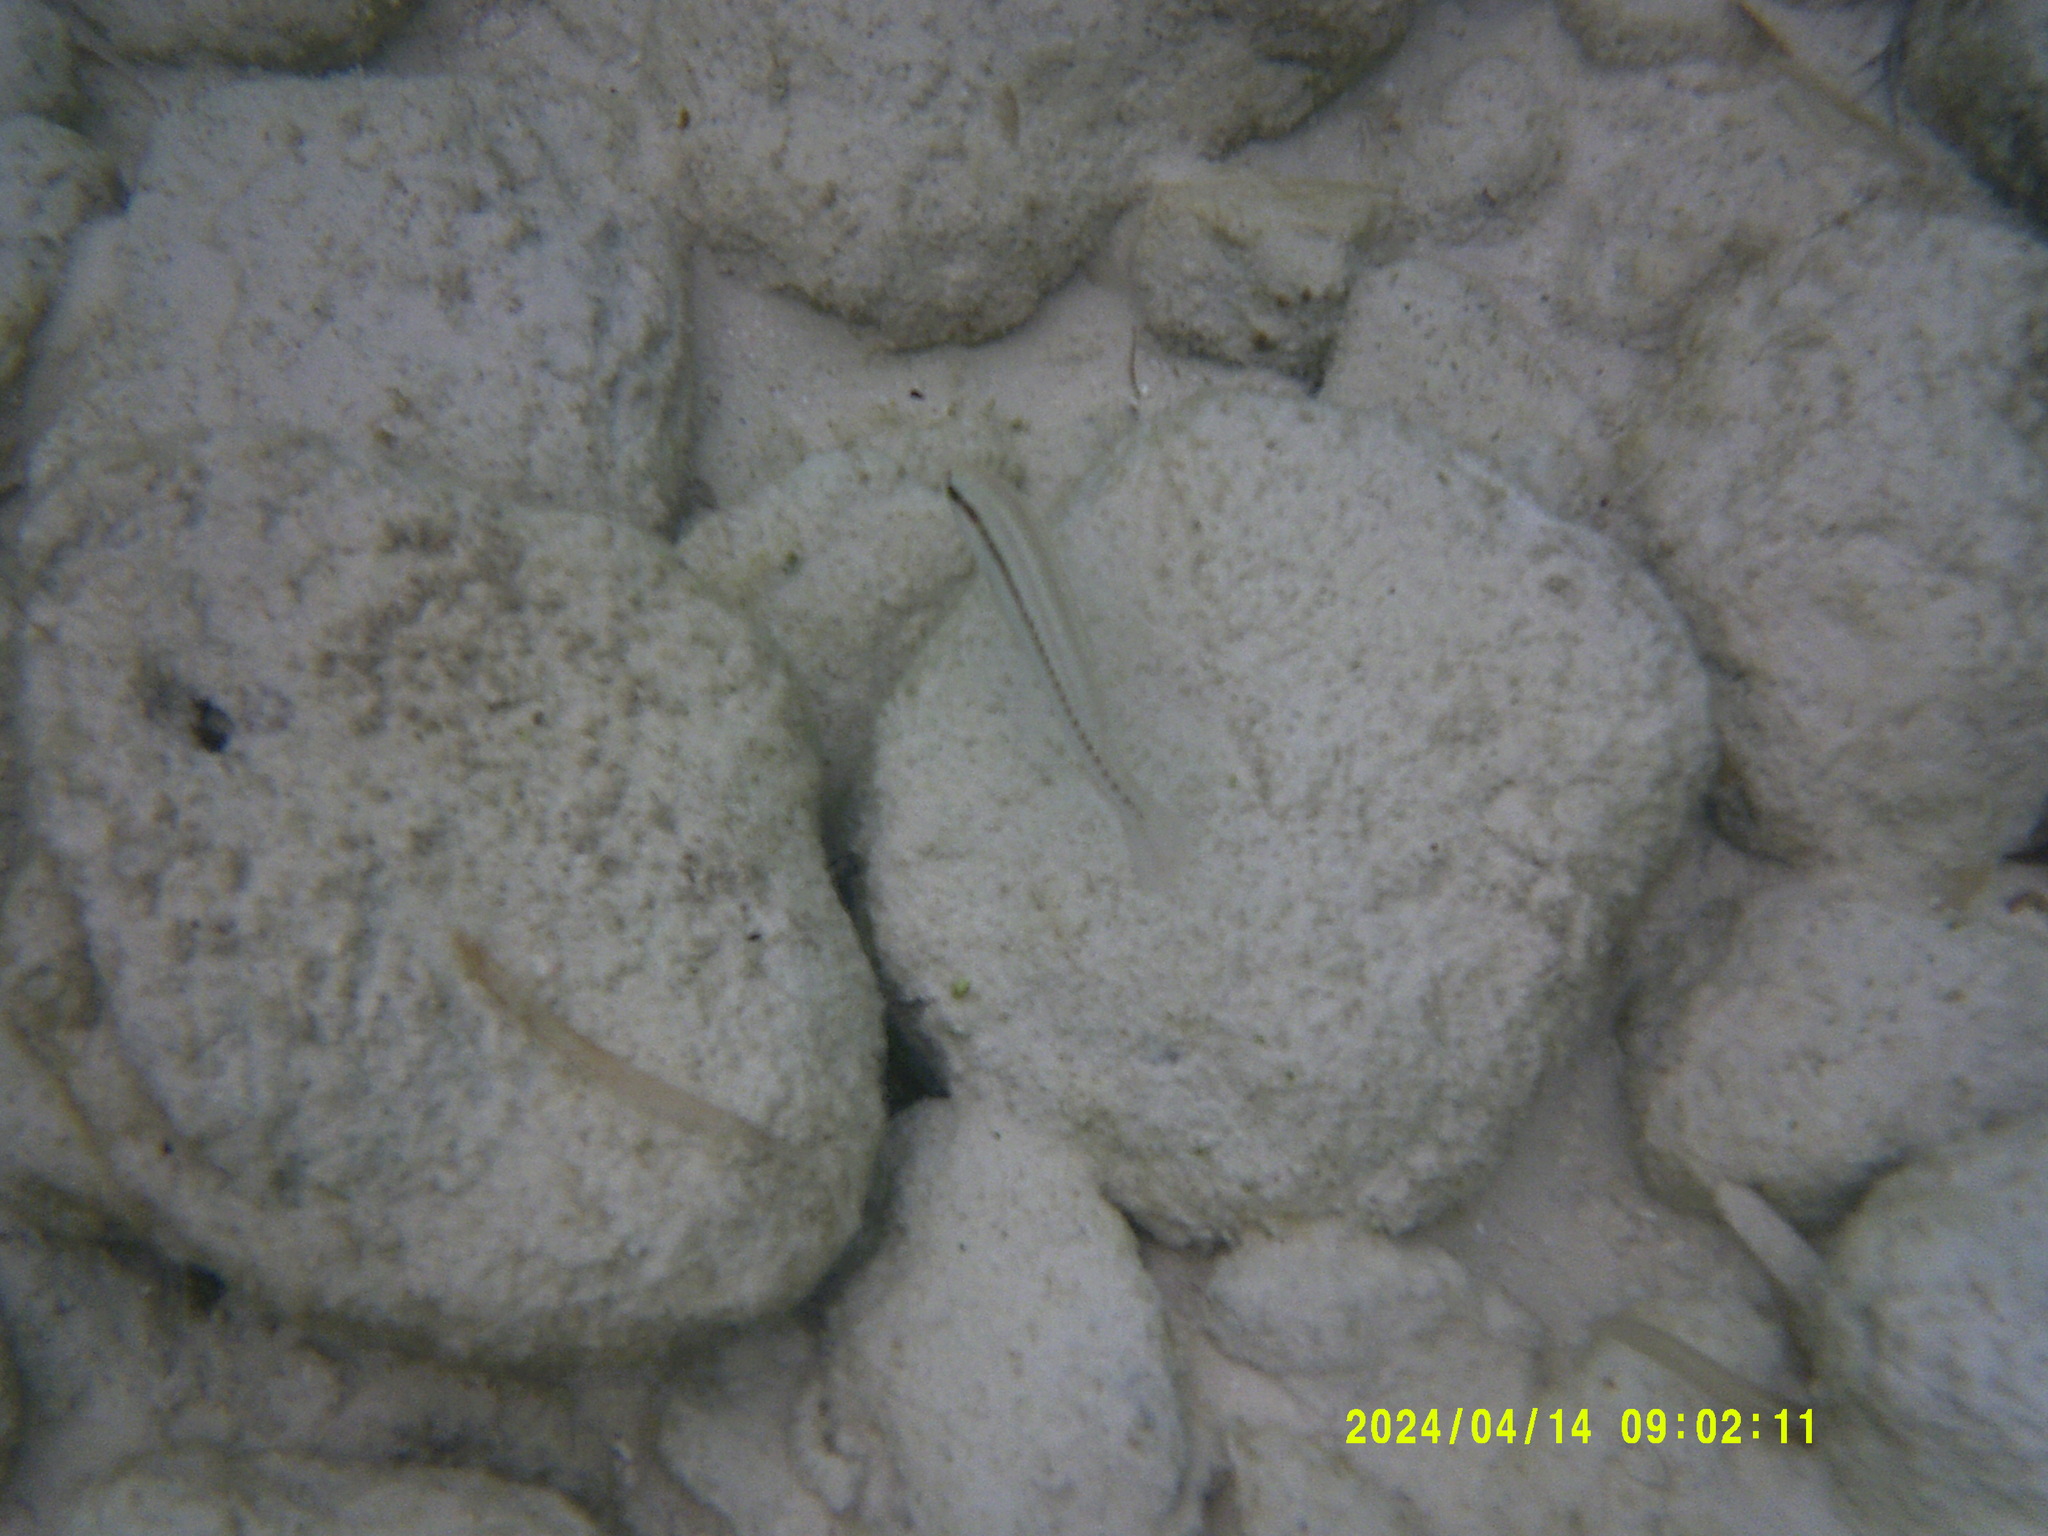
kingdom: Animalia
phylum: Chordata
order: Perciformes
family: Labridae
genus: Halichoeres
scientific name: Halichoeres bivittatus
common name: Slippery dick
